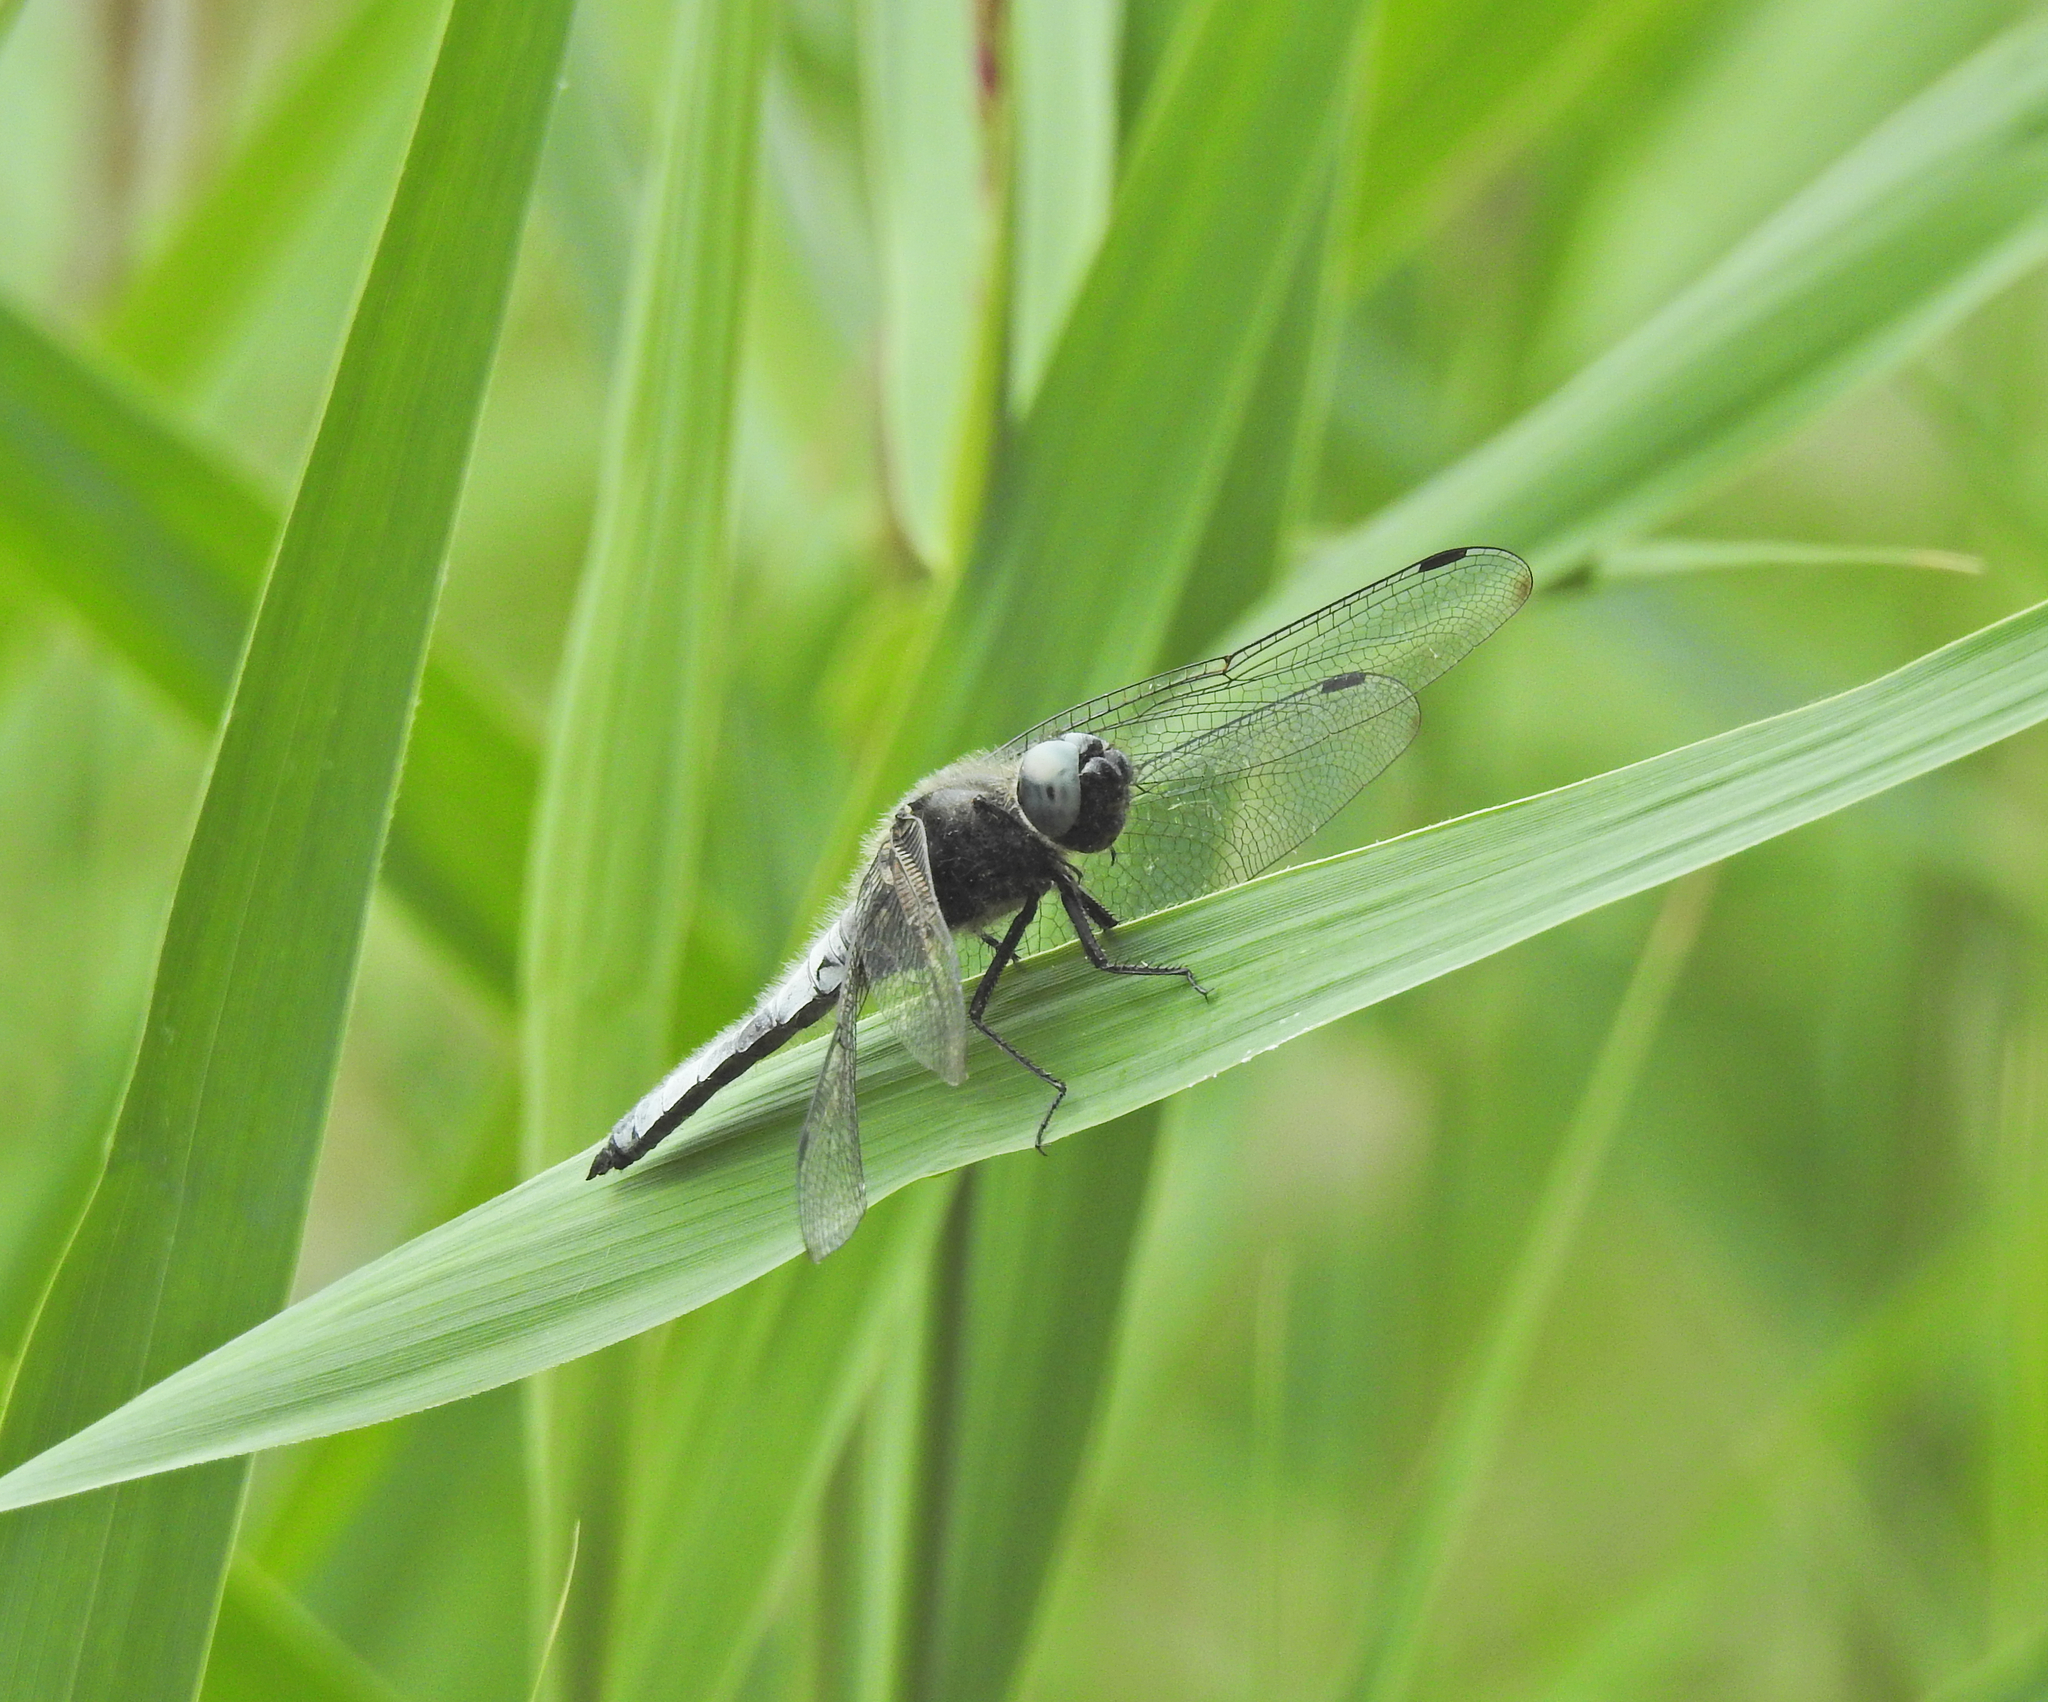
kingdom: Animalia
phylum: Arthropoda
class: Insecta
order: Odonata
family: Libellulidae
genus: Libellula
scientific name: Libellula fulva
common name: Blue chaser
